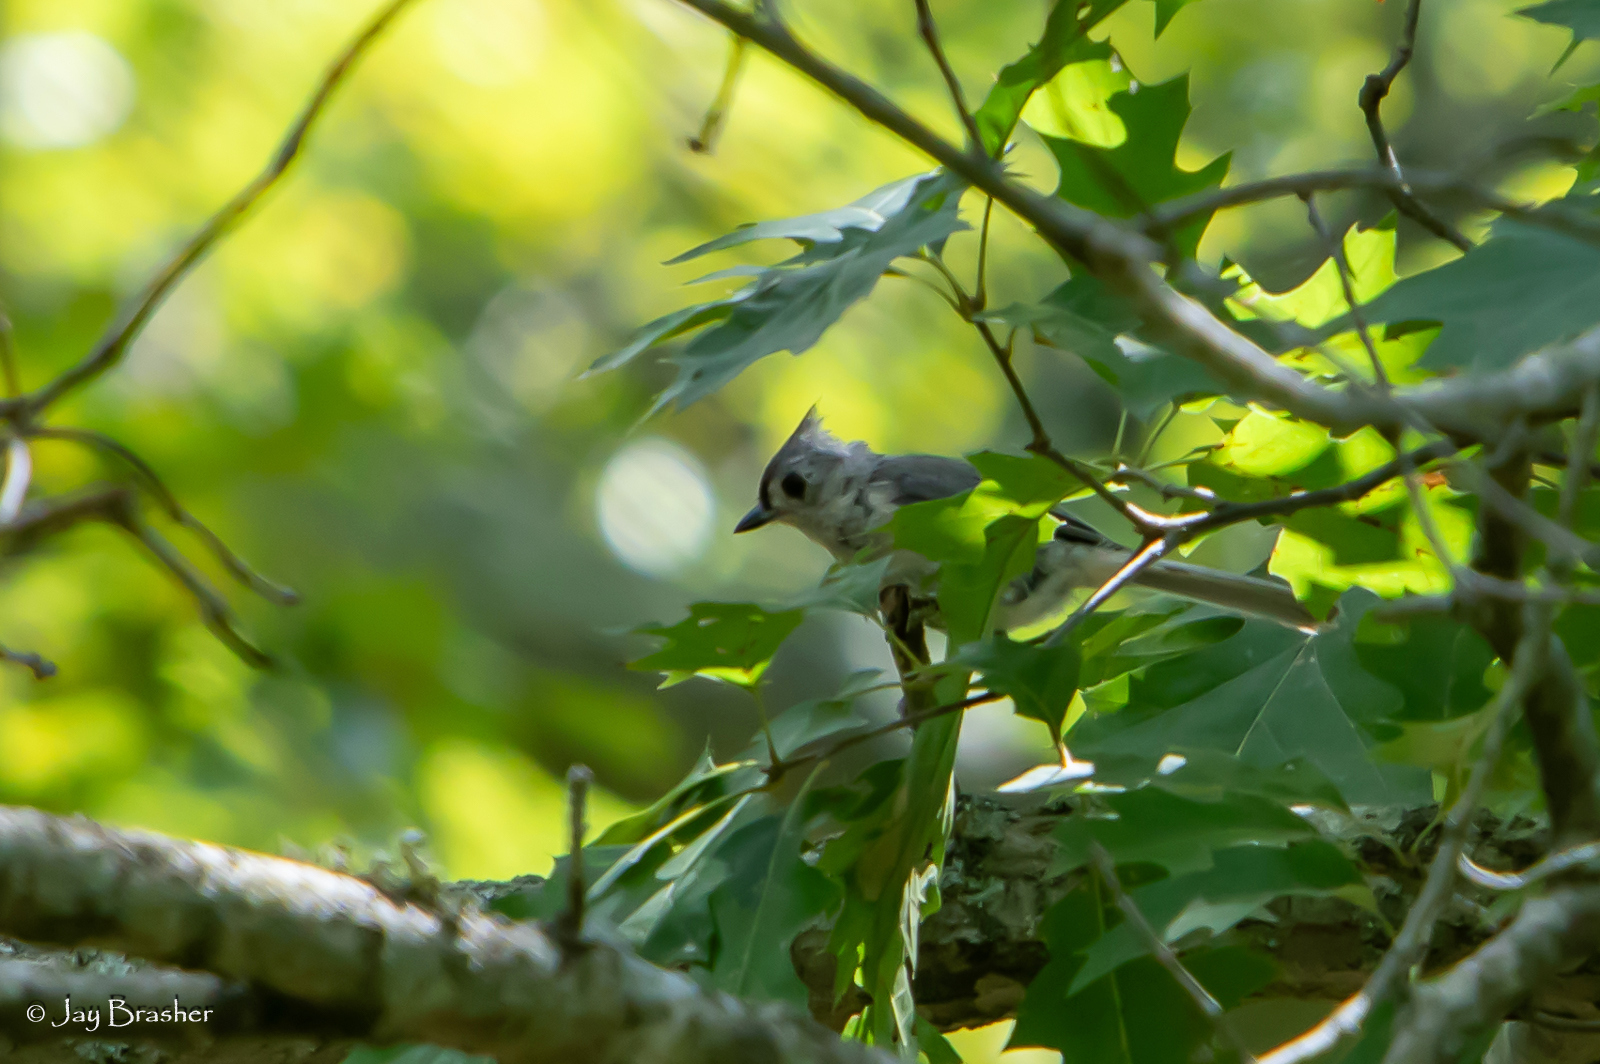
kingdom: Animalia
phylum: Chordata
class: Aves
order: Passeriformes
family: Paridae
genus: Baeolophus
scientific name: Baeolophus bicolor
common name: Tufted titmouse
